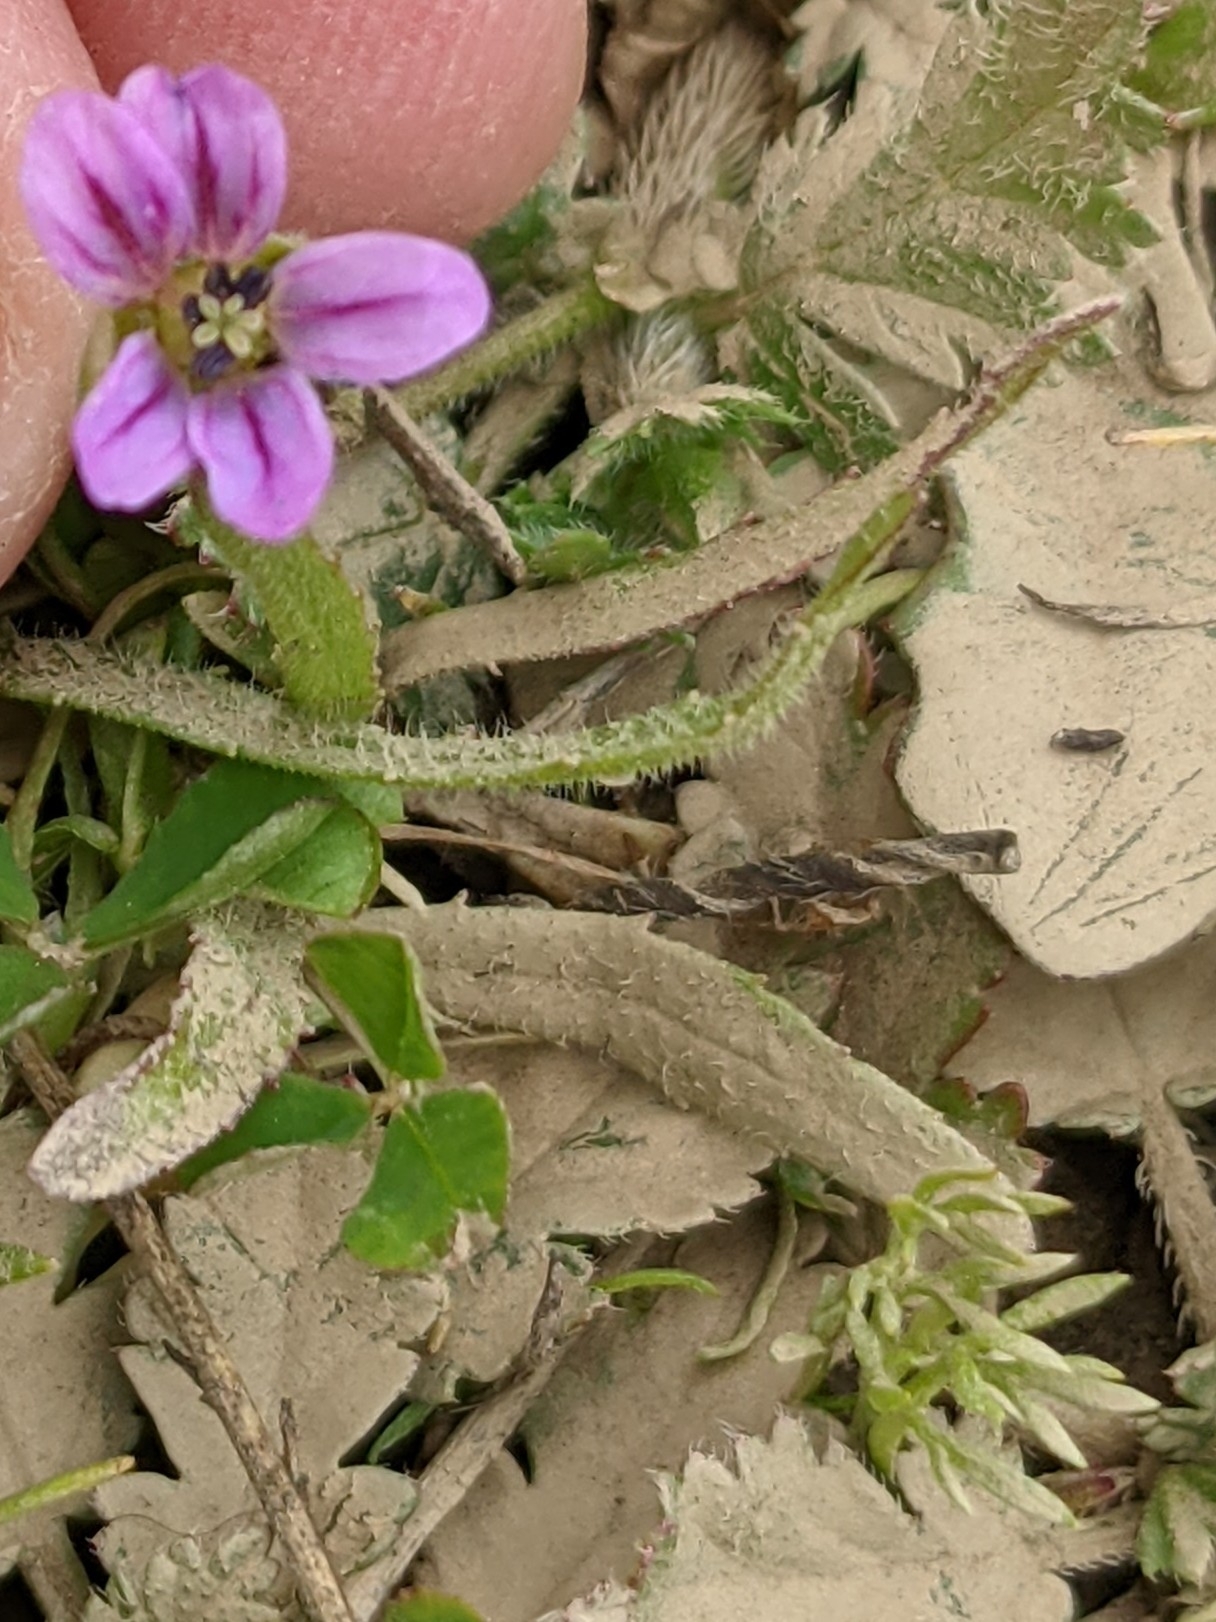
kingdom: Plantae
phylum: Tracheophyta
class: Magnoliopsida
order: Geraniales
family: Geraniaceae
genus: Erodium
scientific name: Erodium brachycarpum
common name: Hairy-pitted stork's-bill
